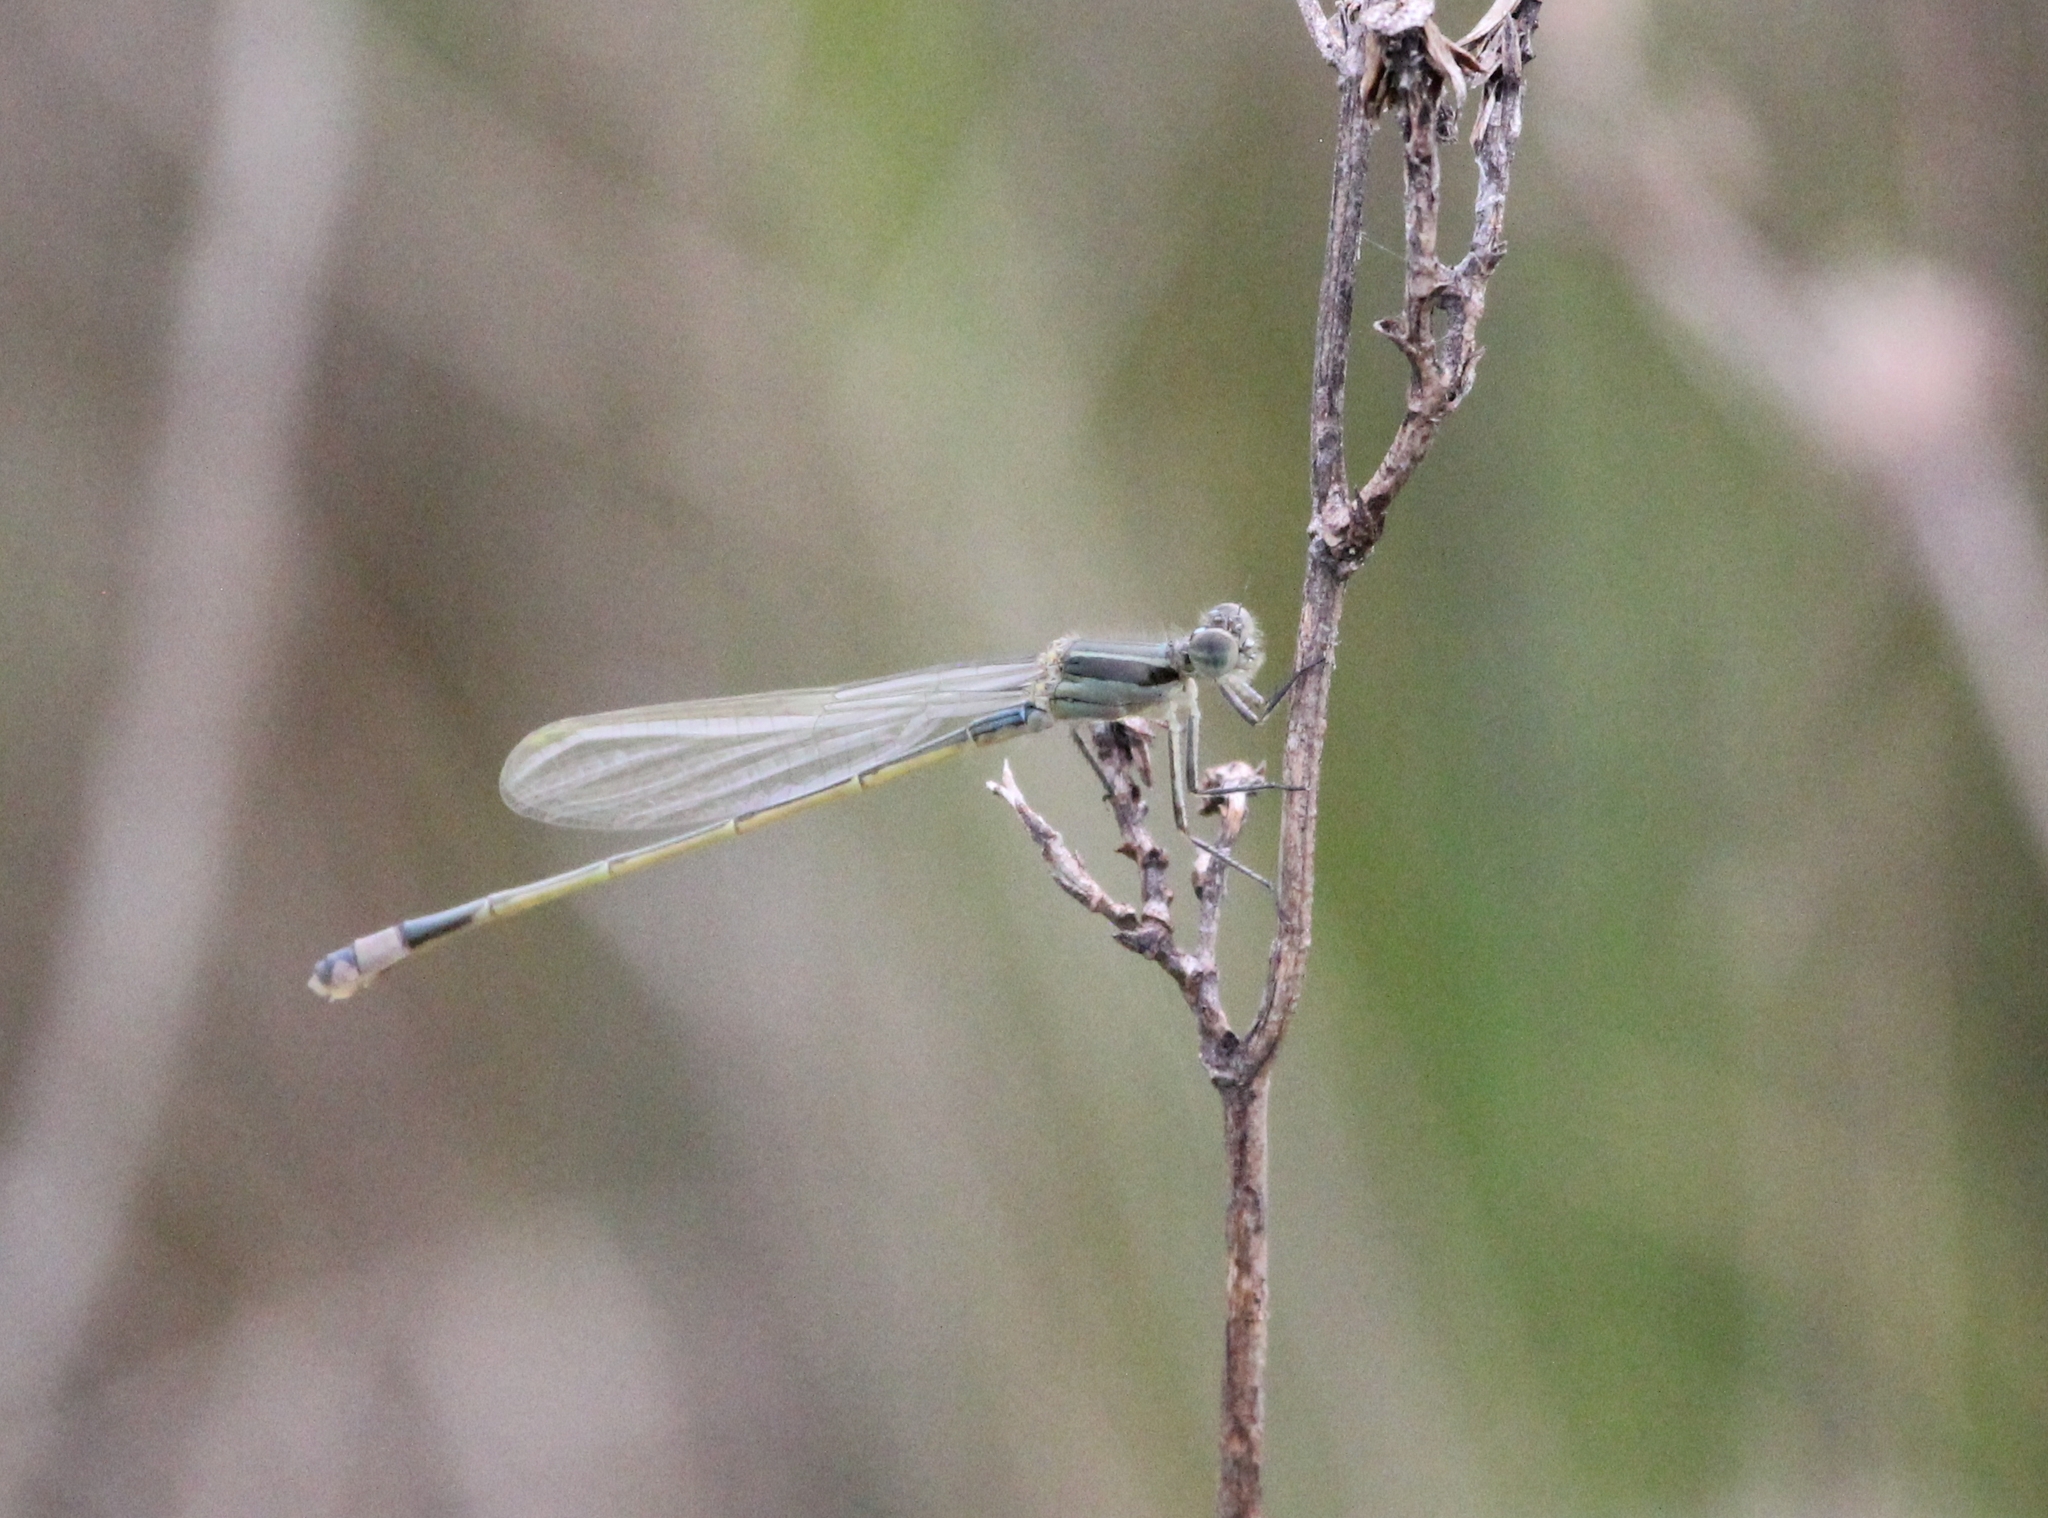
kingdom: Animalia
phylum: Arthropoda
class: Insecta
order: Odonata
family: Coenagrionidae
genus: Ischnura
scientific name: Ischnura ramburii
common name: Rambur's forktail
